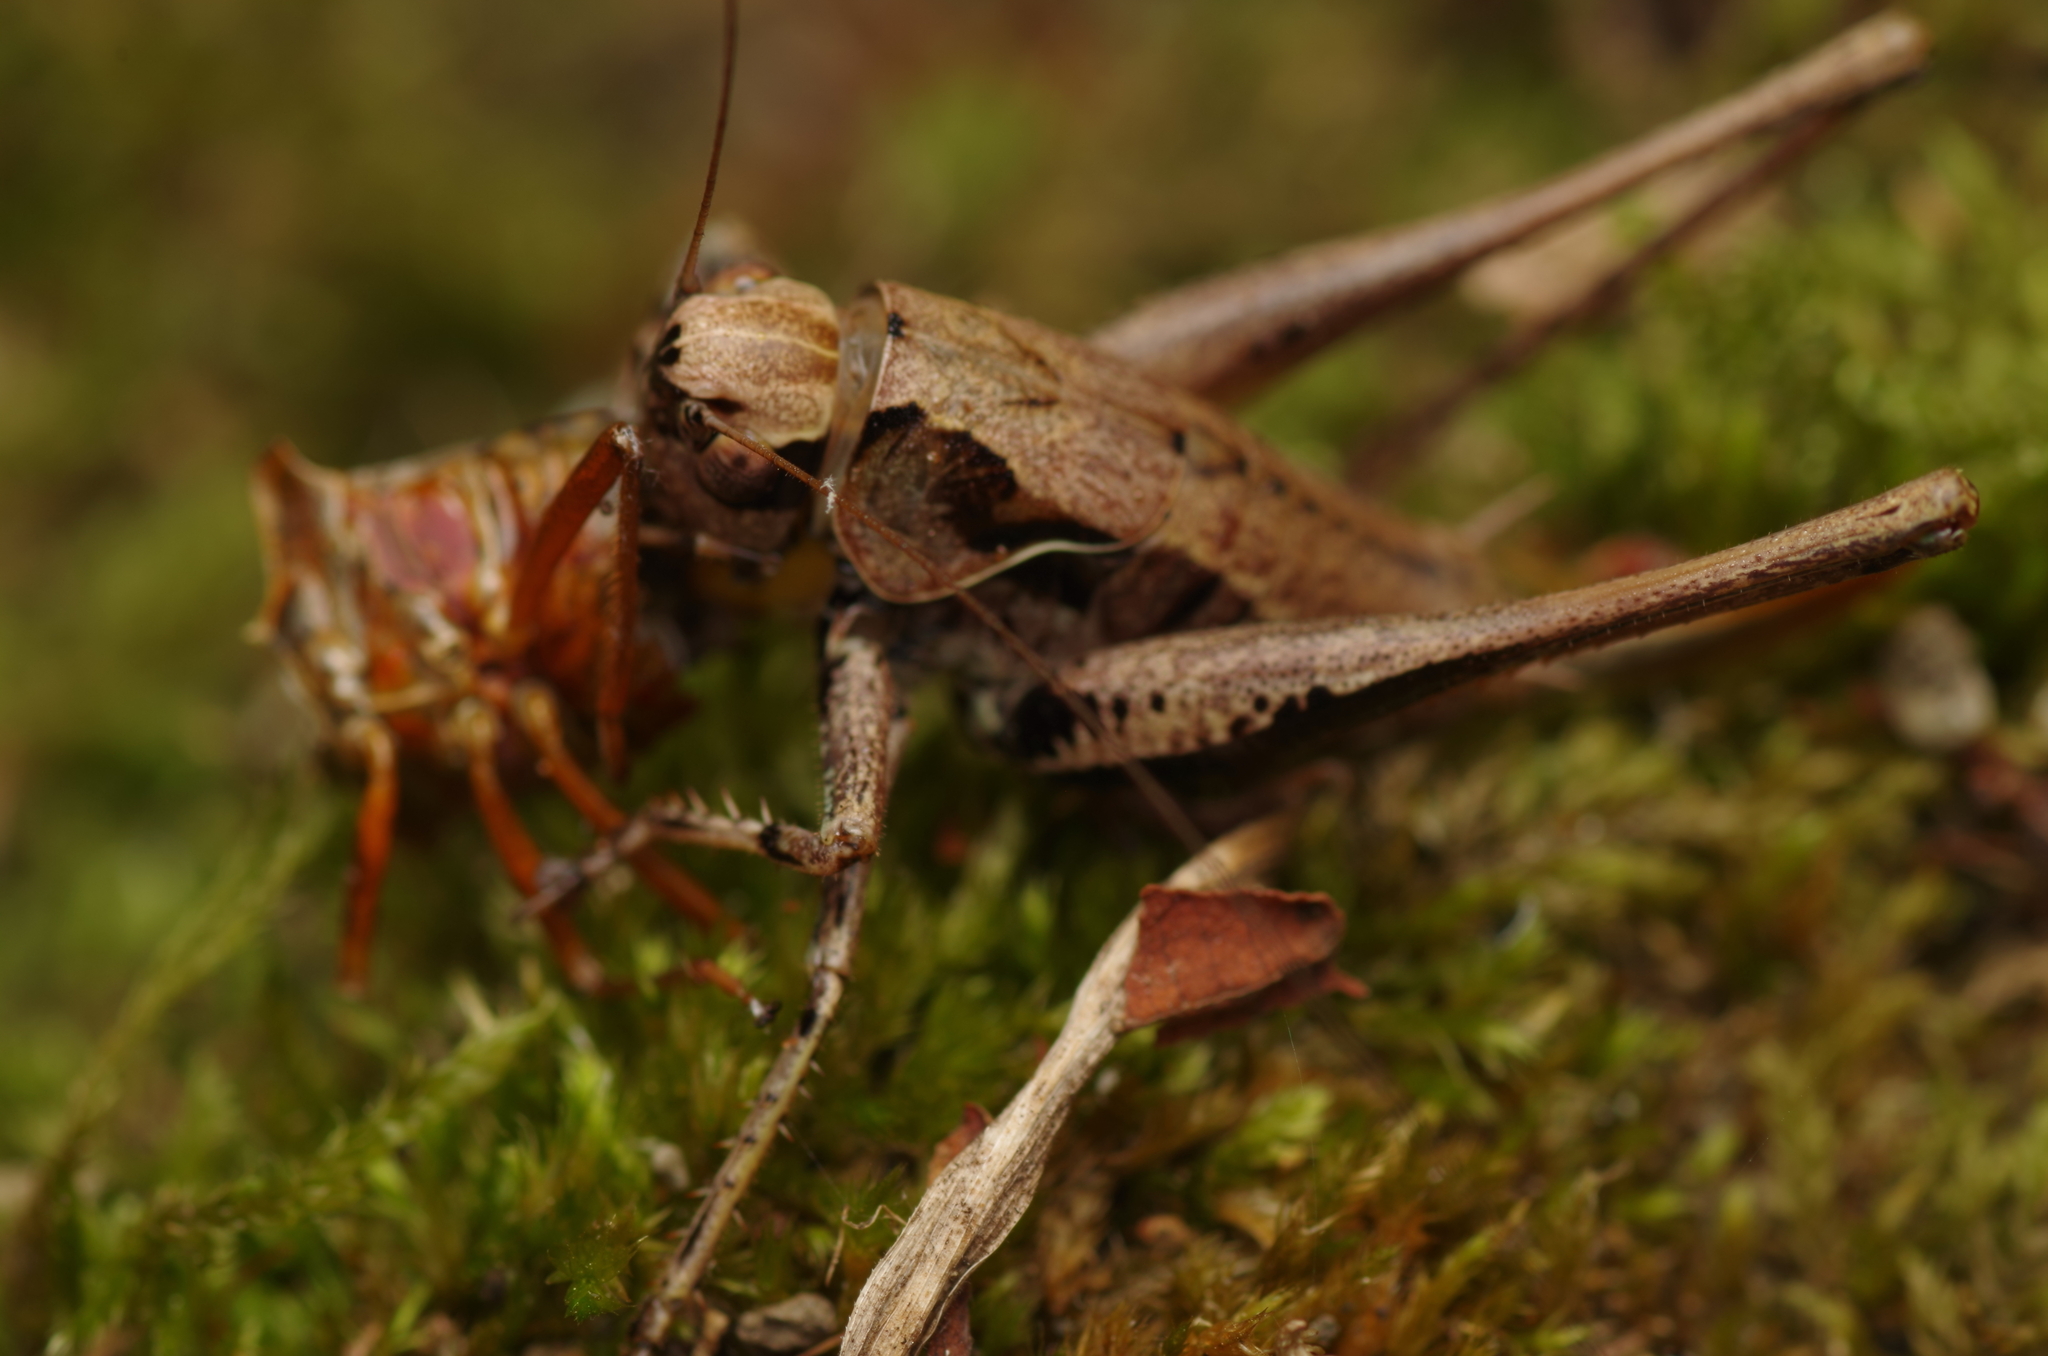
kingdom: Animalia
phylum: Arthropoda
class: Insecta
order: Orthoptera
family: Tettigoniidae
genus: Pholidoptera
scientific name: Pholidoptera griseoaptera
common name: Dark bush-cricket
